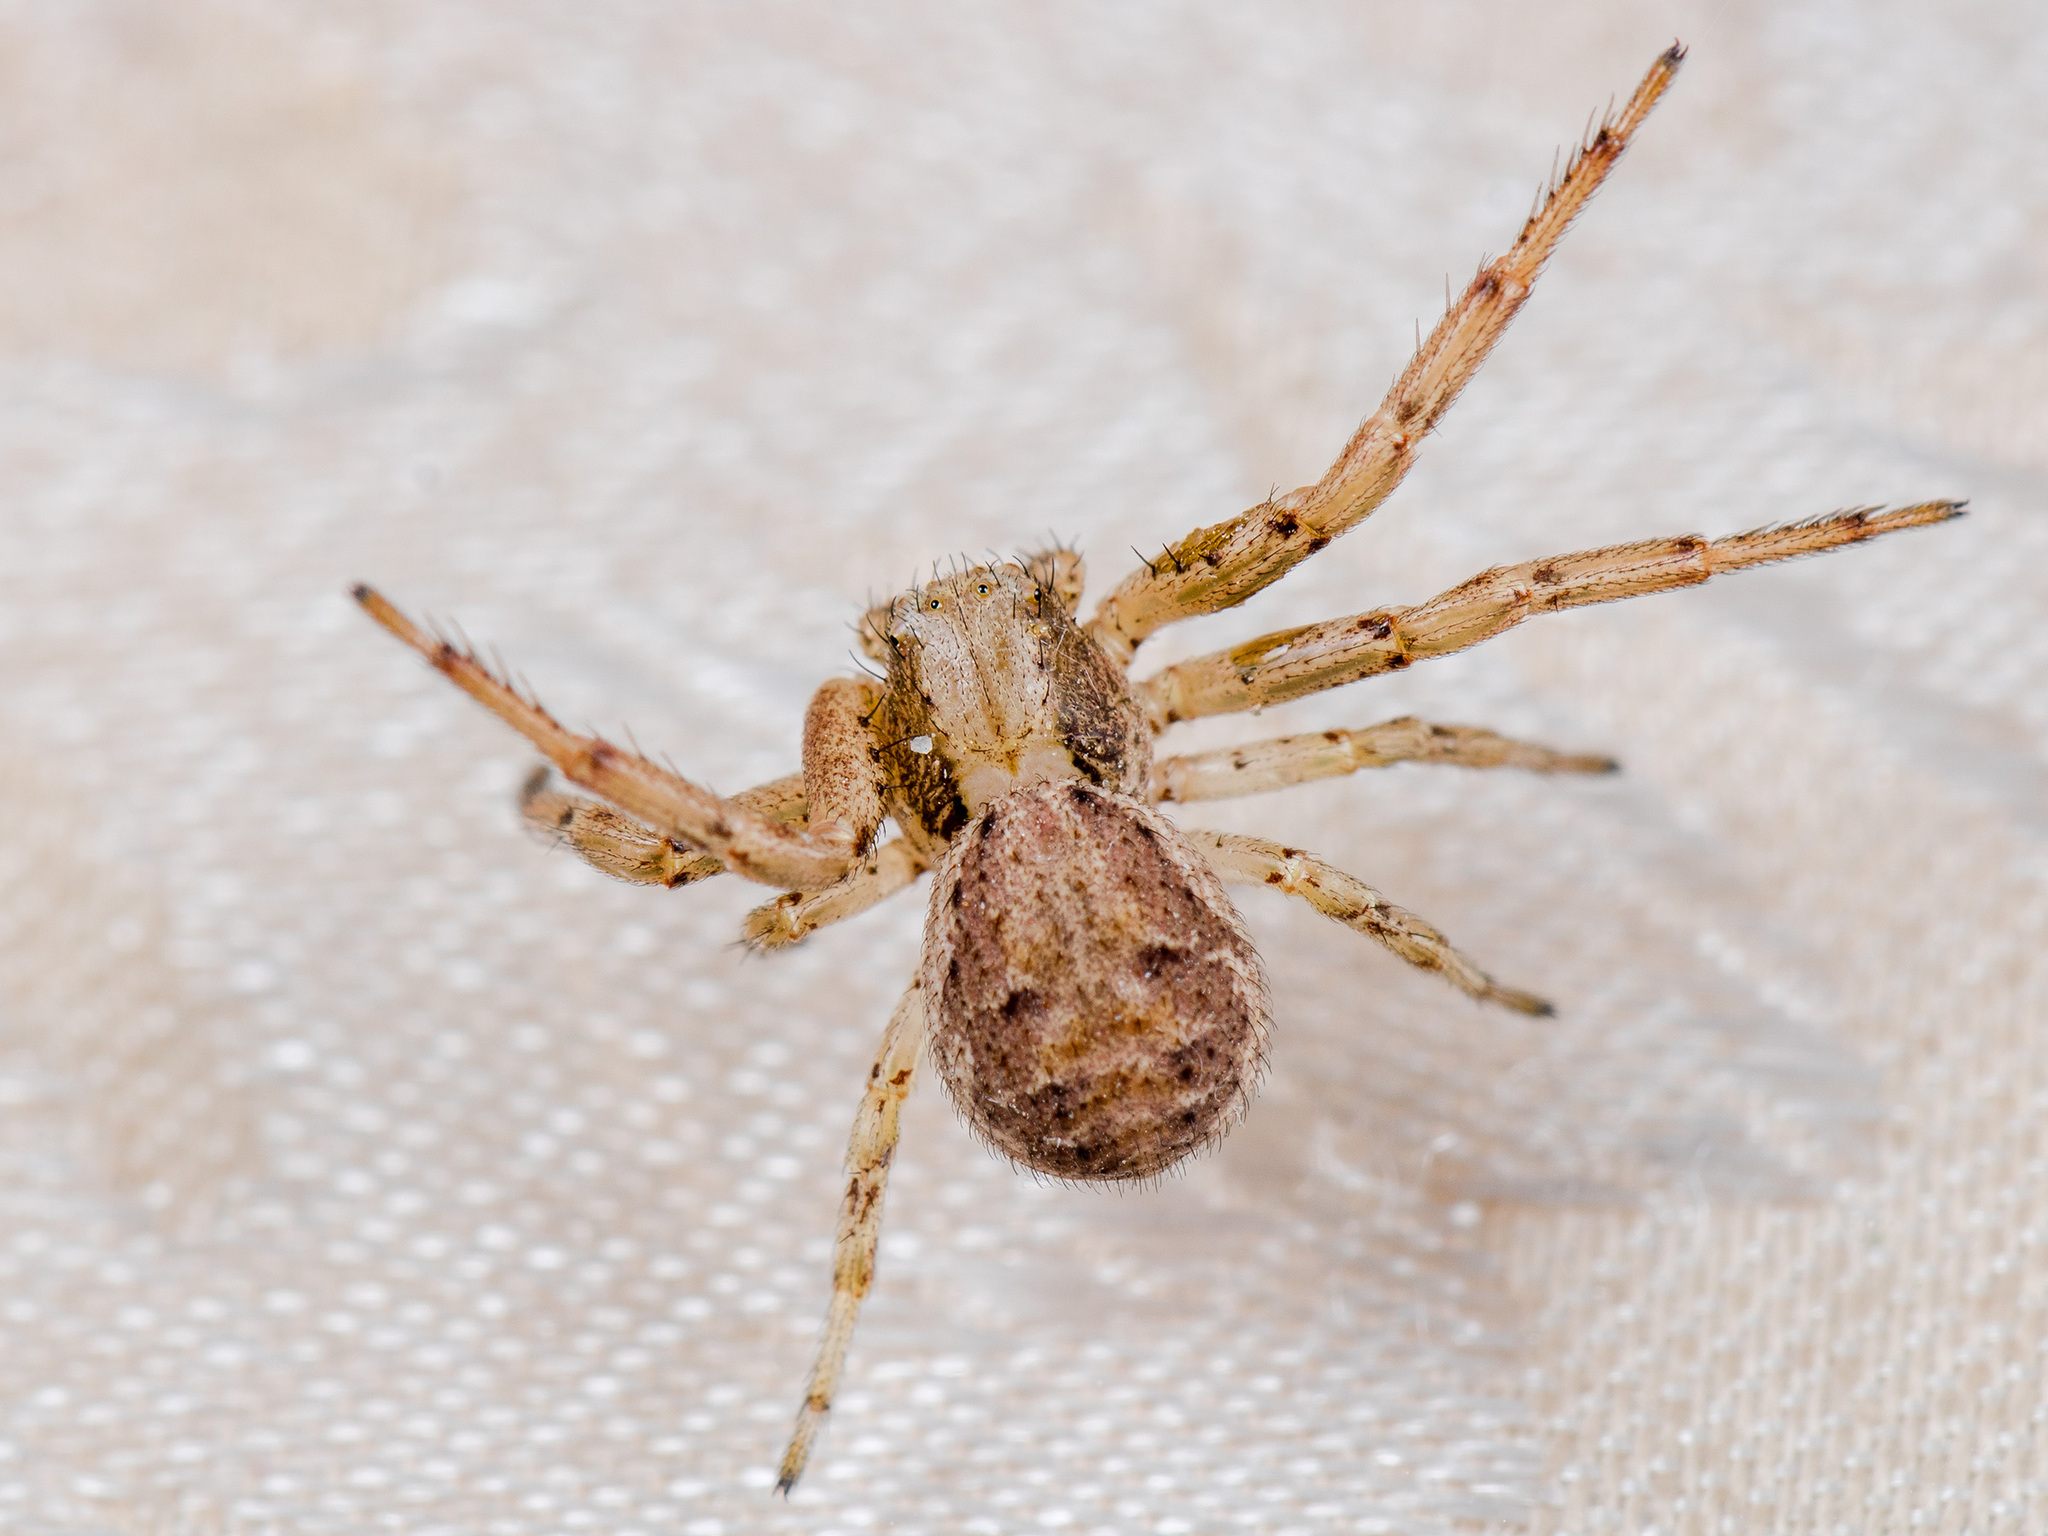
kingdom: Animalia
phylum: Arthropoda
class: Arachnida
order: Araneae
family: Thomisidae
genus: Spiracme
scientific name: Spiracme mongolica
